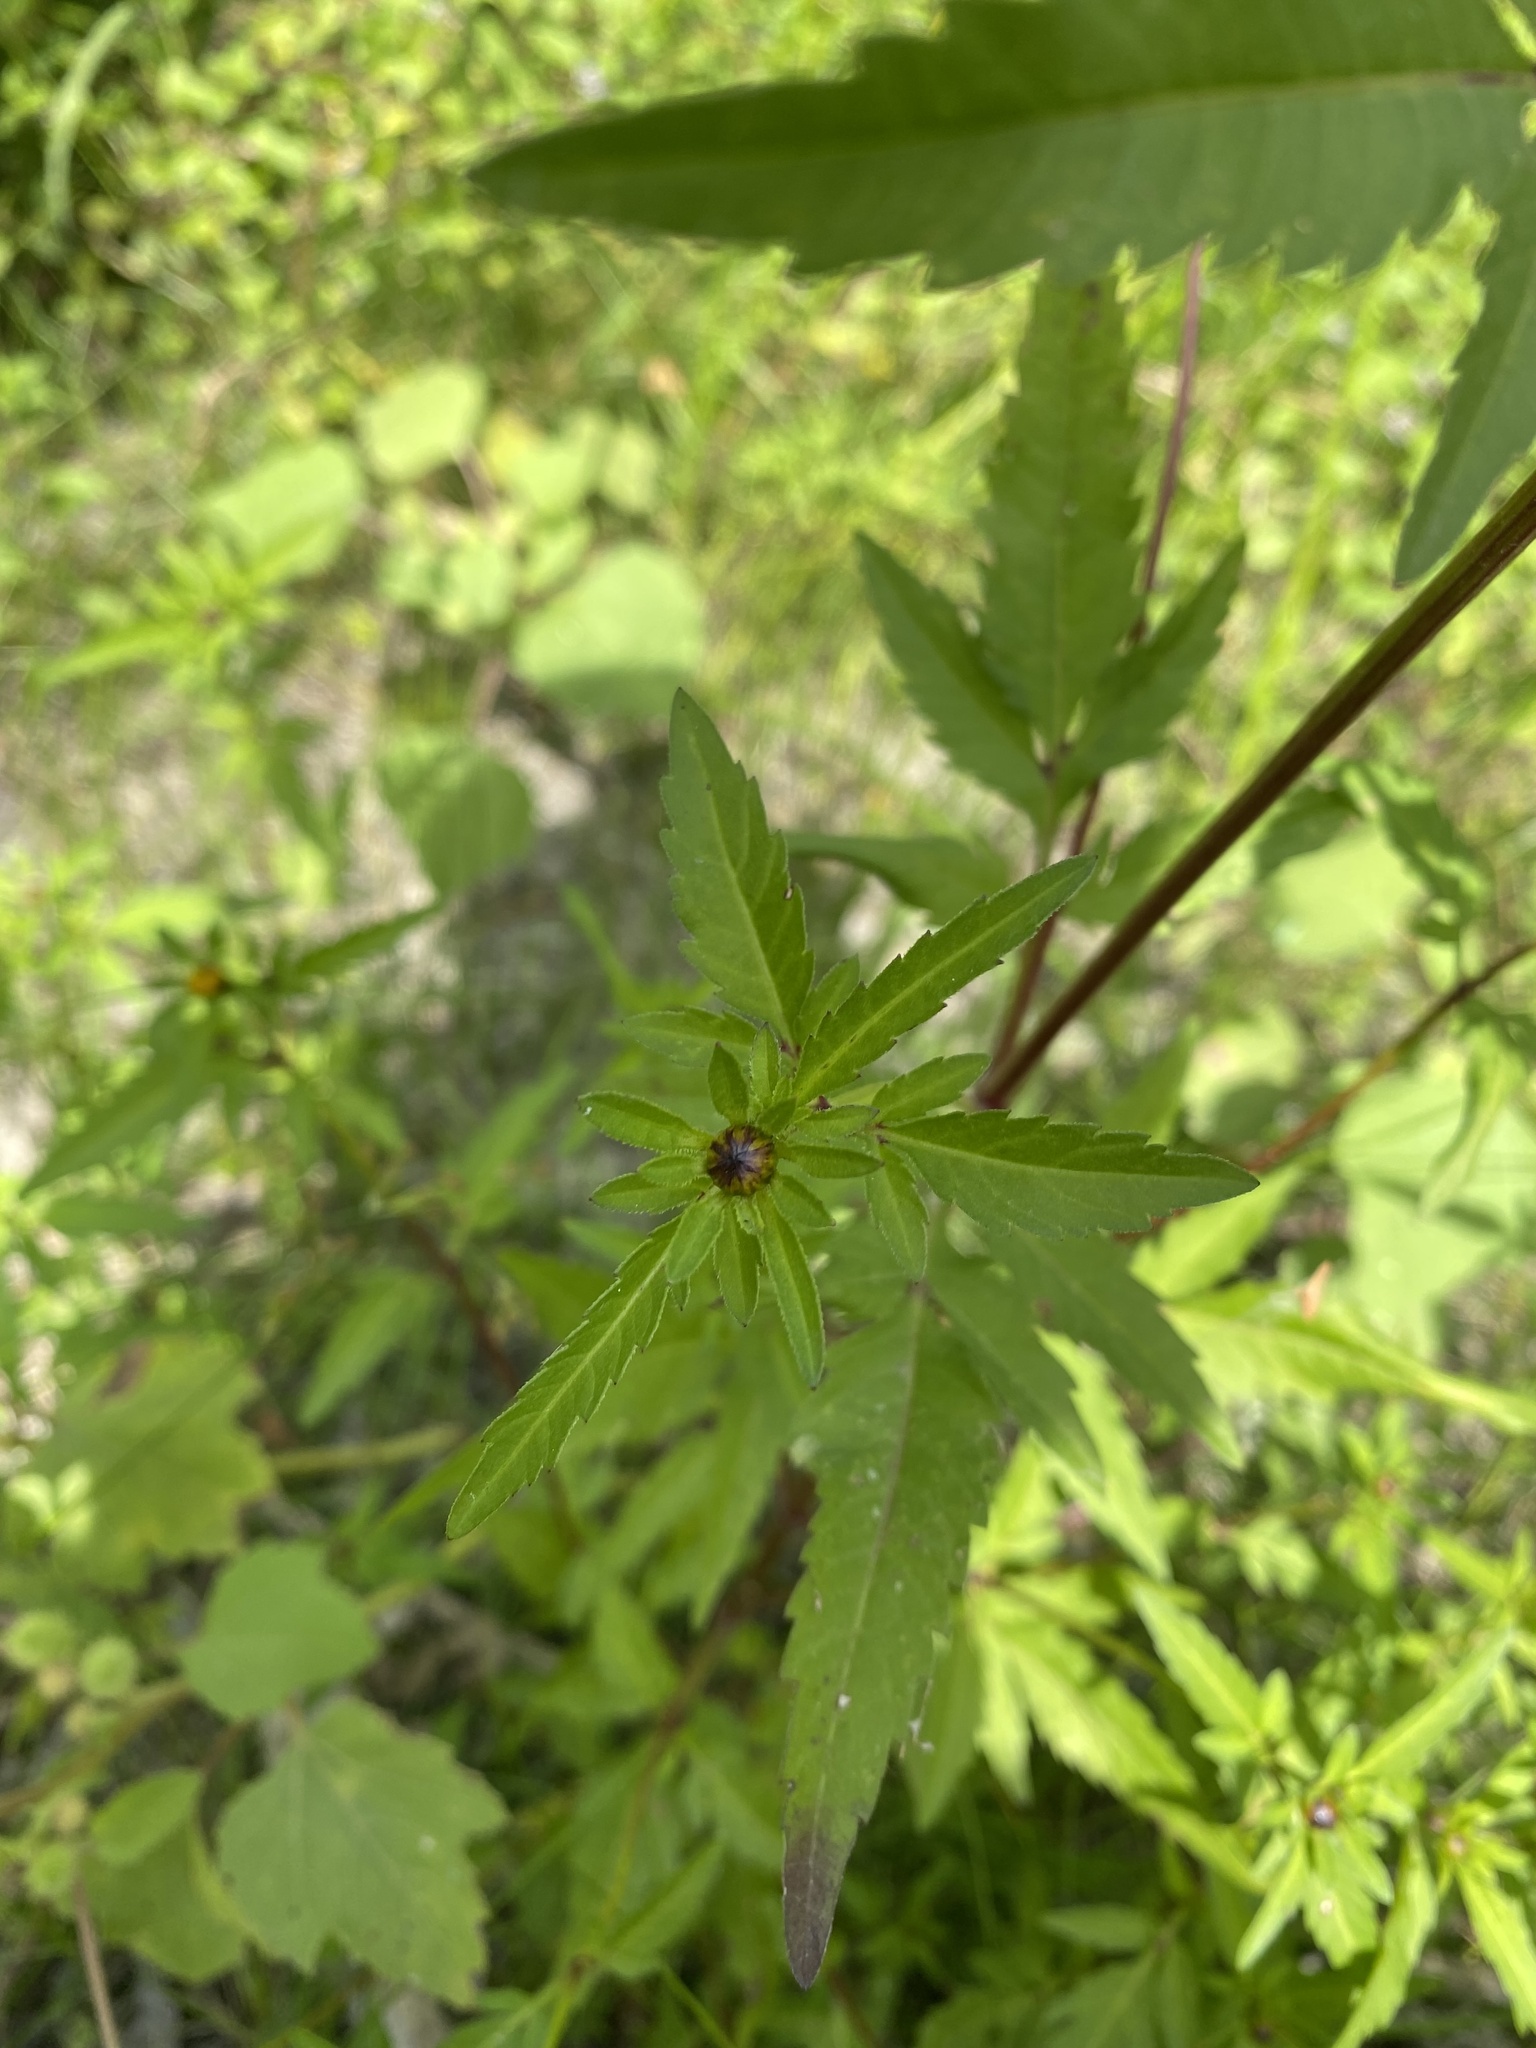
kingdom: Plantae
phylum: Tracheophyta
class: Magnoliopsida
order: Asterales
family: Asteraceae
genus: Bidens
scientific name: Bidens tripartita
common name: Trifid bur-marigold
